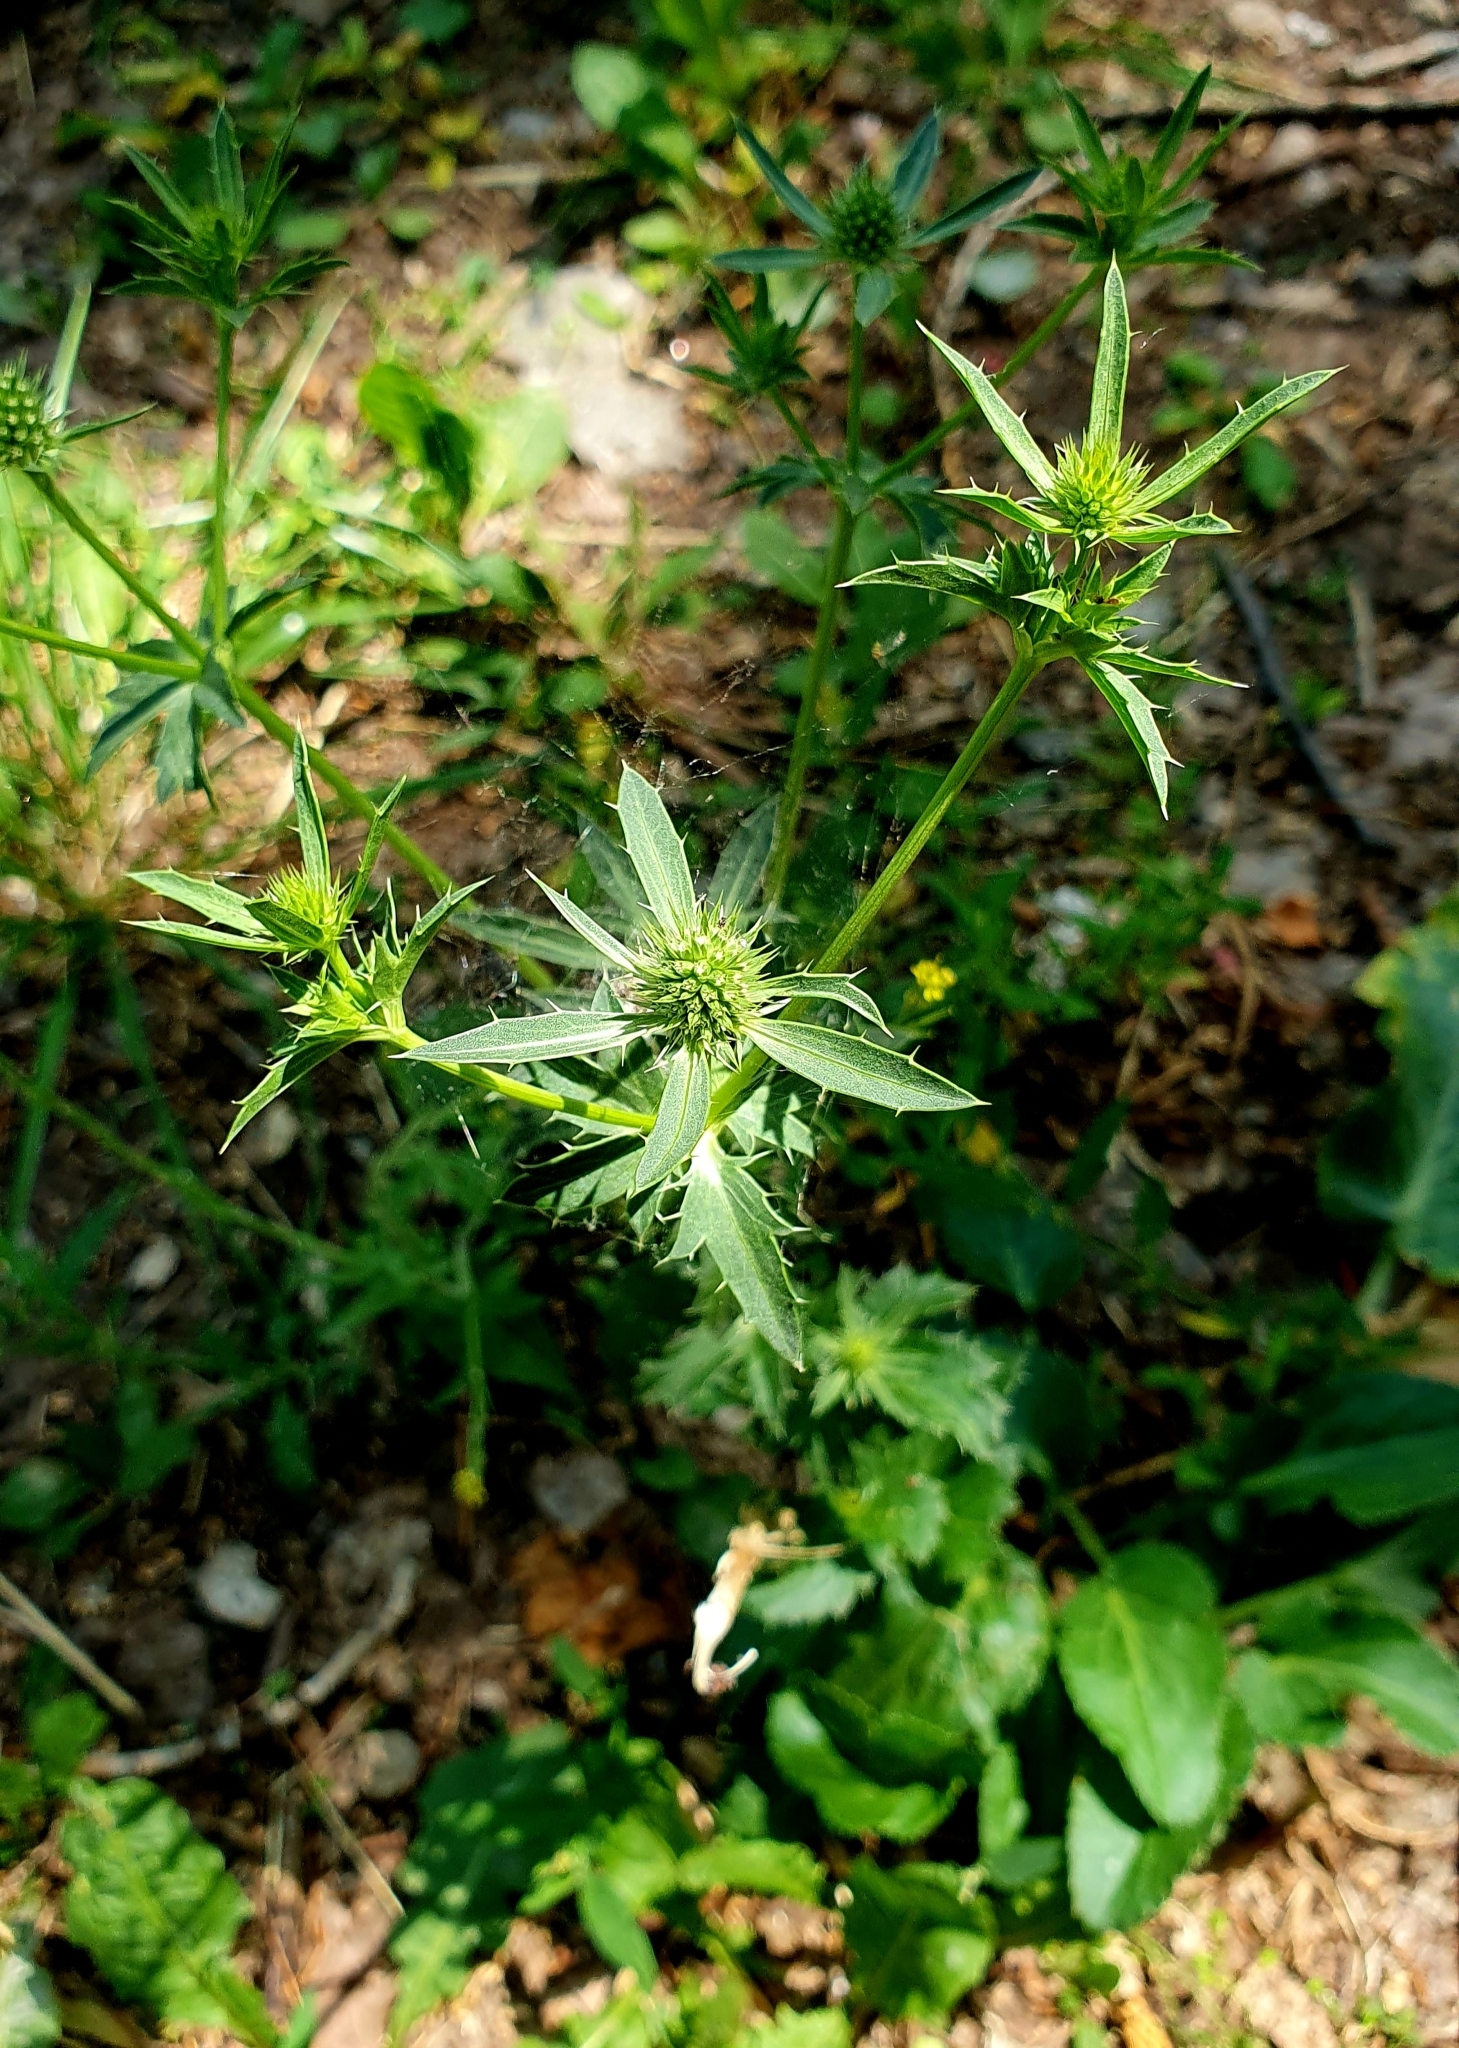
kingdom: Plantae
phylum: Tracheophyta
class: Magnoliopsida
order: Apiales
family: Apiaceae
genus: Eryngium
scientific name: Eryngium planum
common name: Blue eryngo
